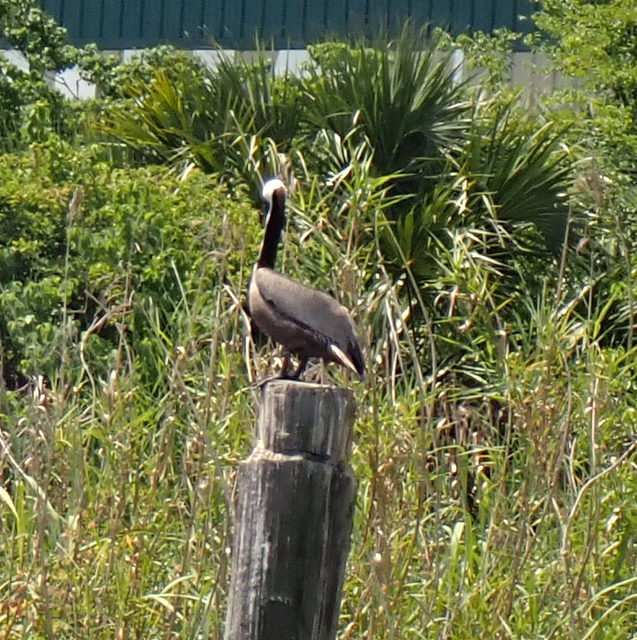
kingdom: Animalia
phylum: Chordata
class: Aves
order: Pelecaniformes
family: Pelecanidae
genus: Pelecanus
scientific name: Pelecanus occidentalis
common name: Brown pelican
